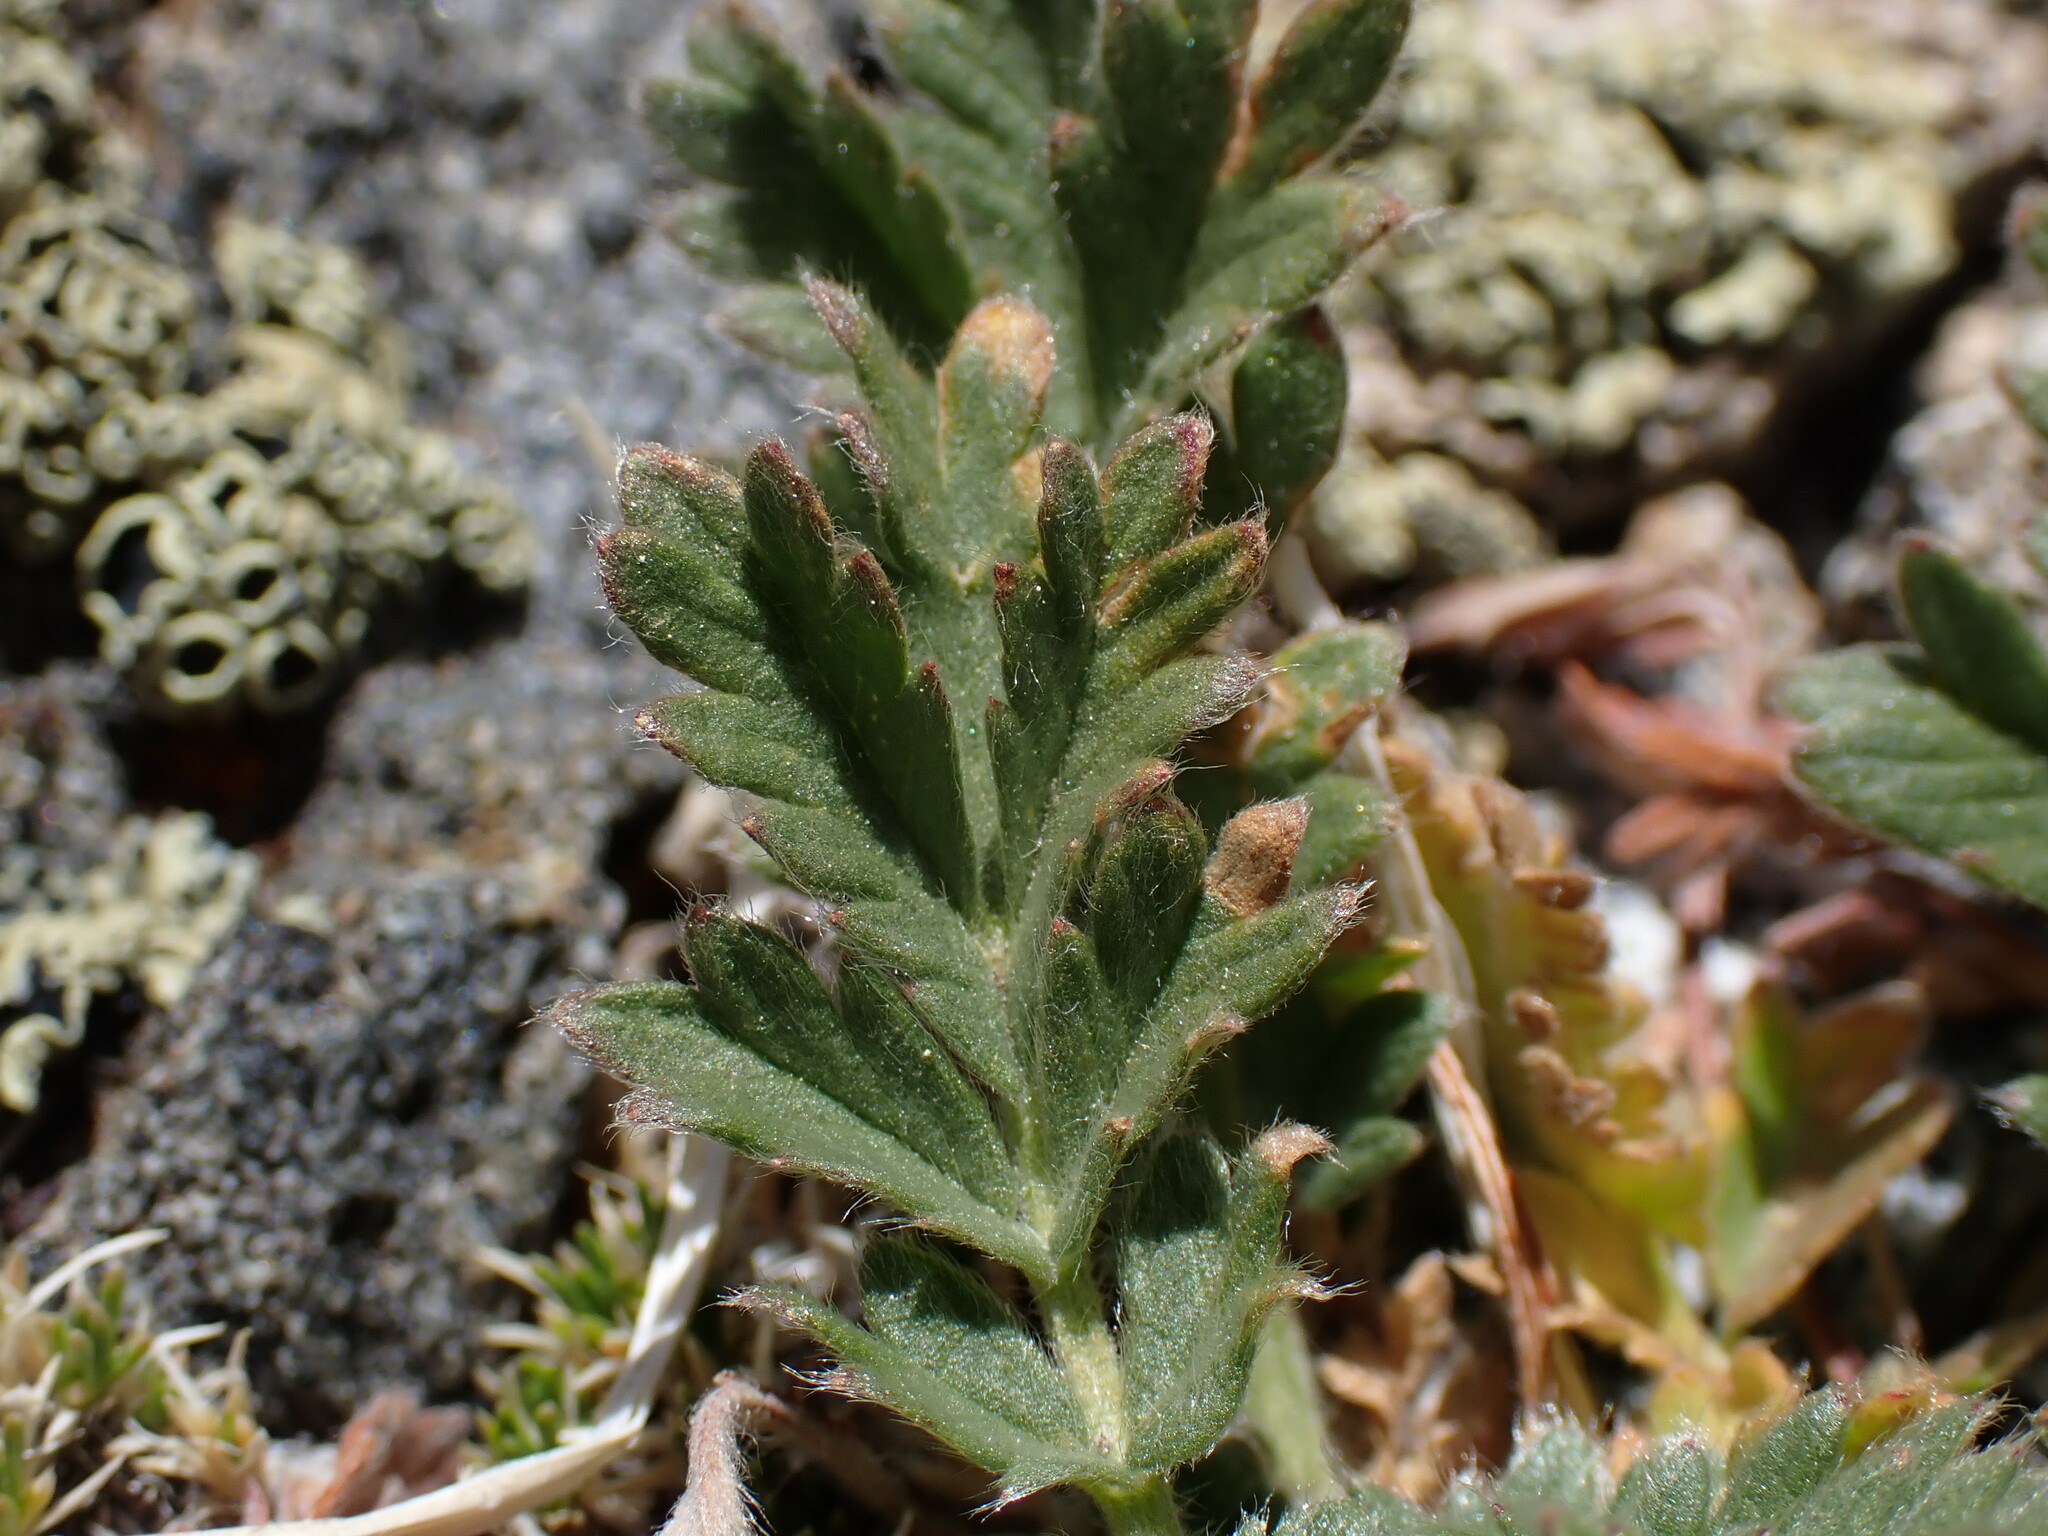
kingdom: Plantae
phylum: Tracheophyta
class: Magnoliopsida
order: Rosales
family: Rosaceae
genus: Potentilla
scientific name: Potentilla pensylvanica
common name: Pennsylvania cinquefoil
